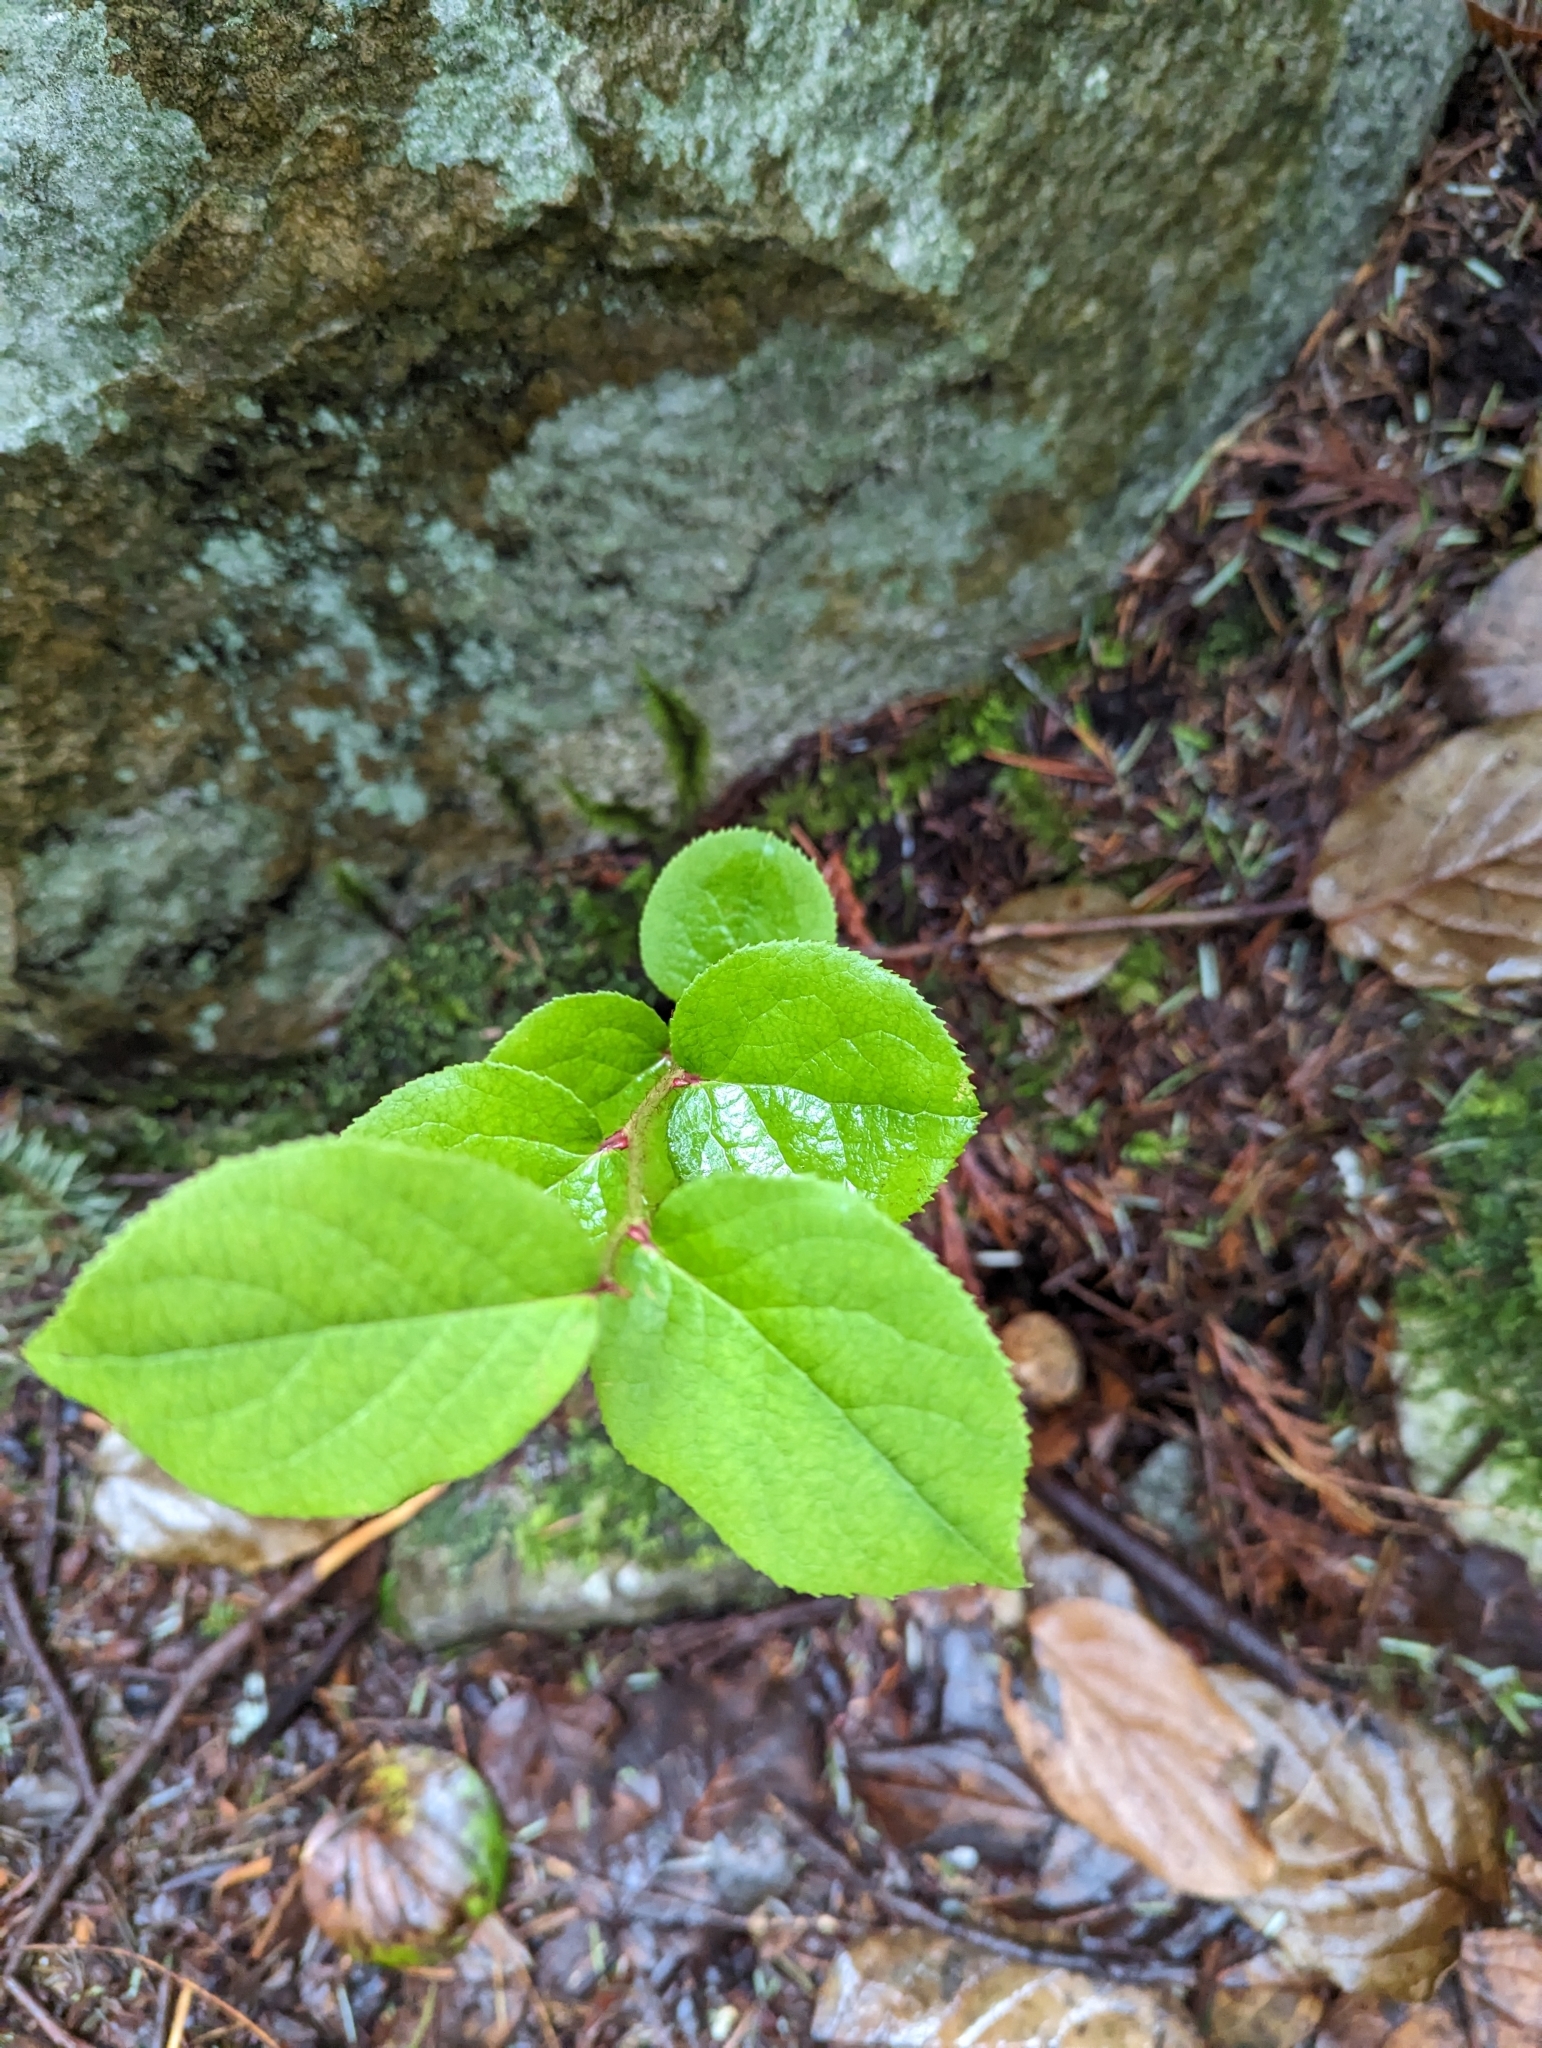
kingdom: Plantae
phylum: Tracheophyta
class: Magnoliopsida
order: Ericales
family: Ericaceae
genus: Gaultheria
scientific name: Gaultheria shallon
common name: Shallon
